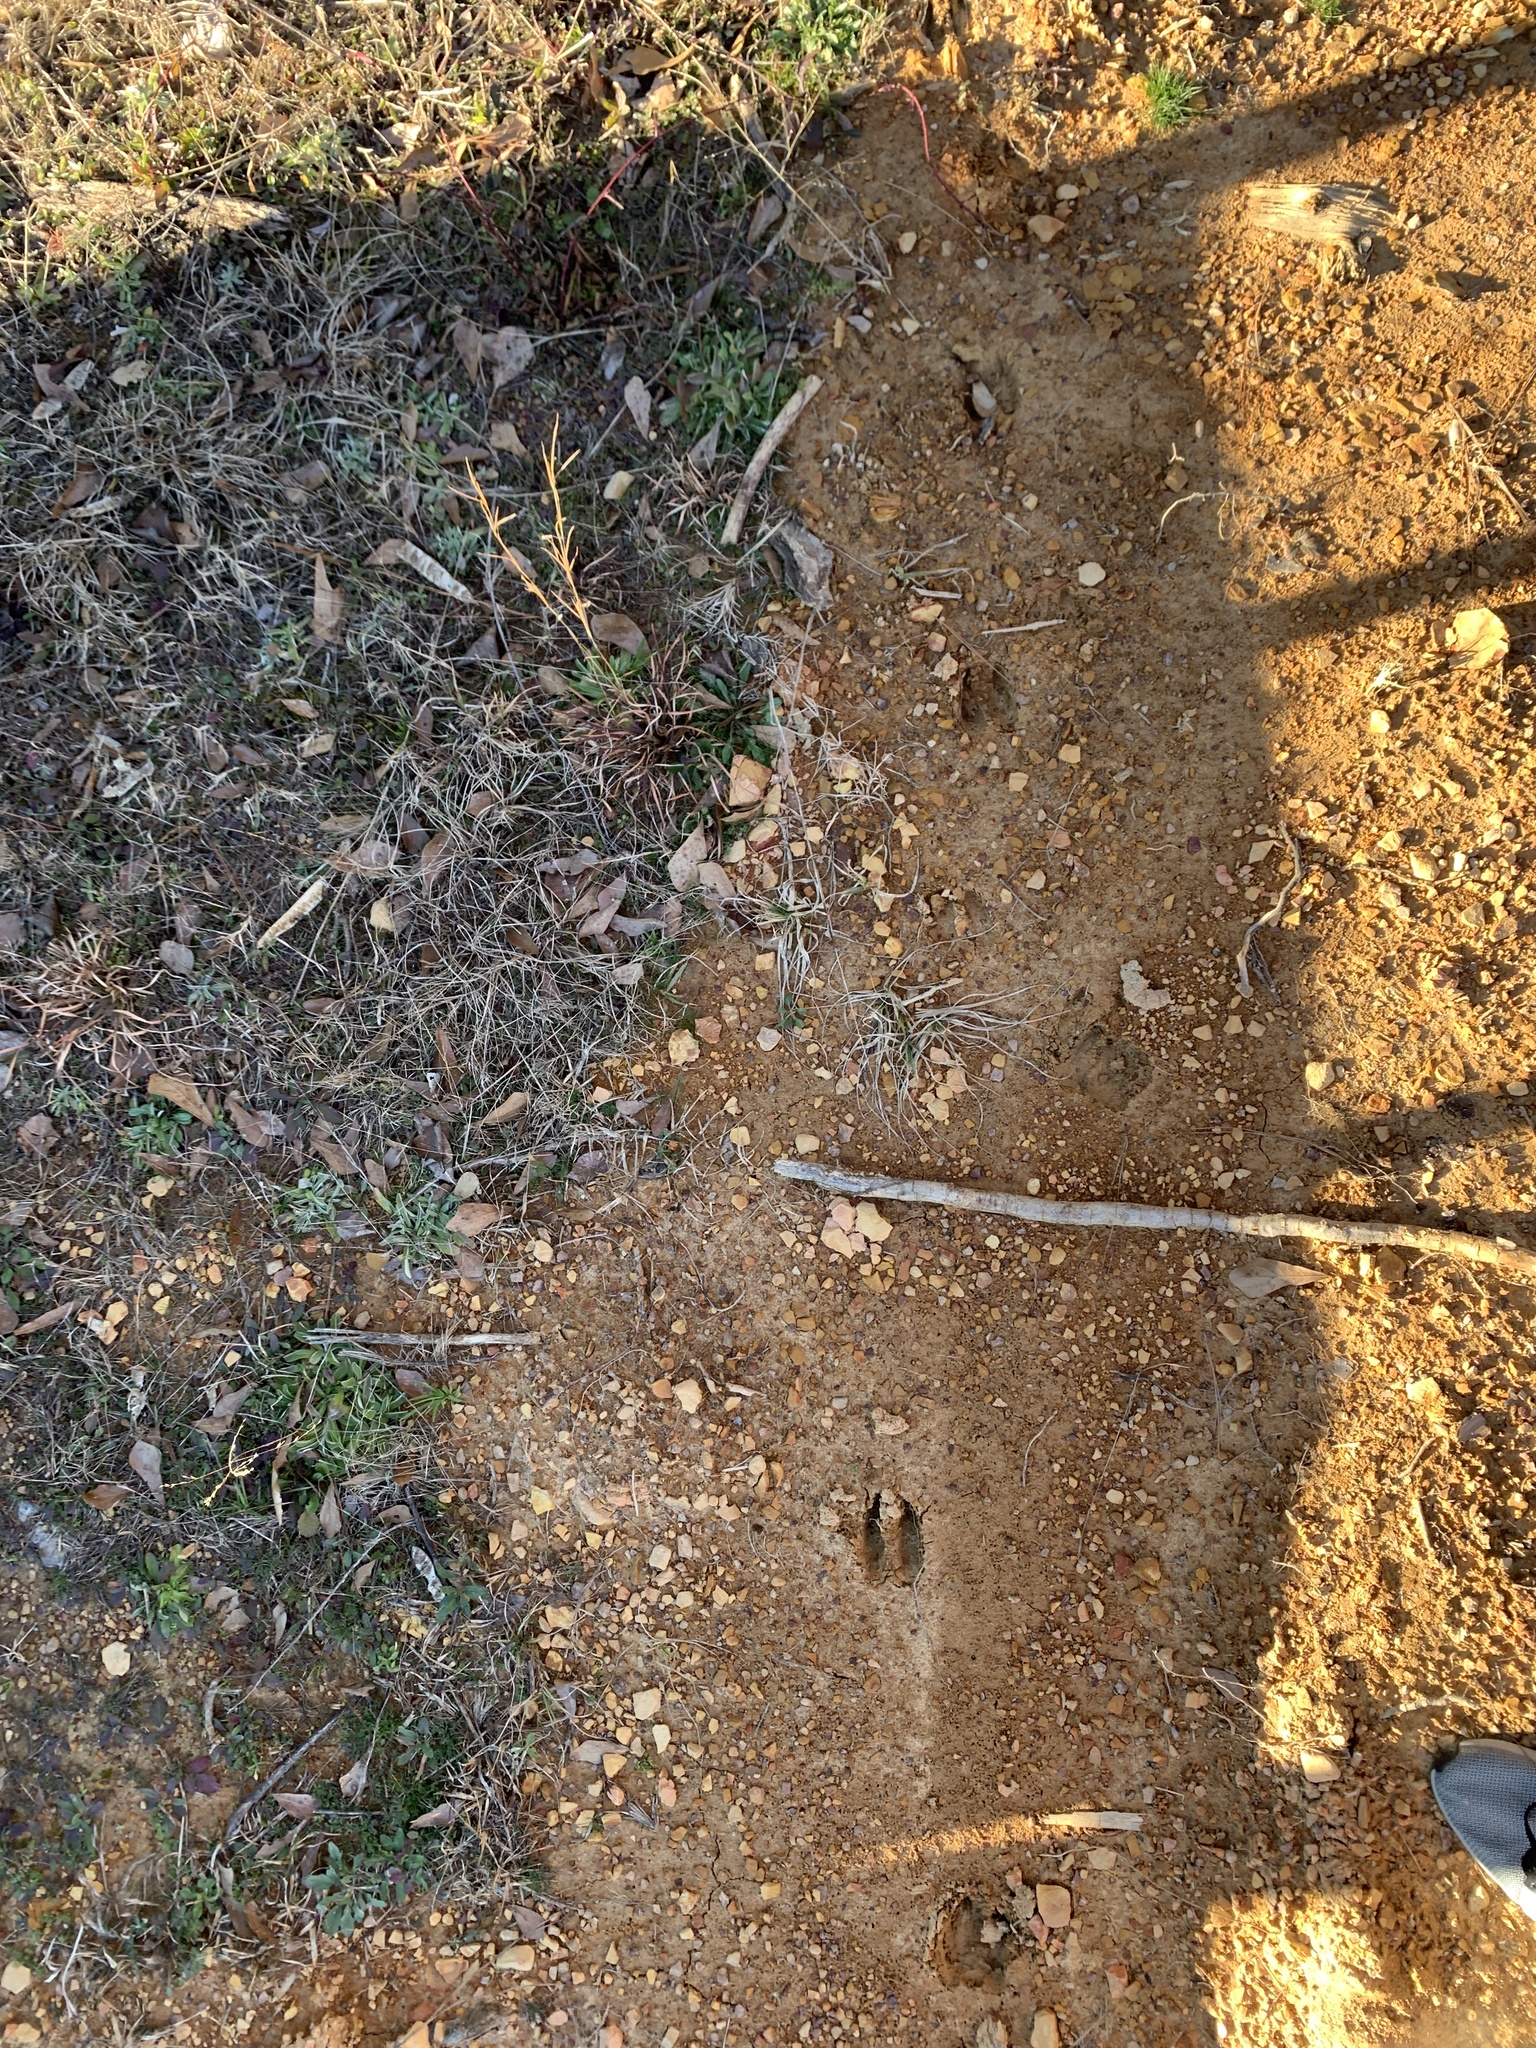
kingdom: Animalia
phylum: Chordata
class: Mammalia
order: Artiodactyla
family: Cervidae
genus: Odocoileus
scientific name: Odocoileus virginianus
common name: White-tailed deer
